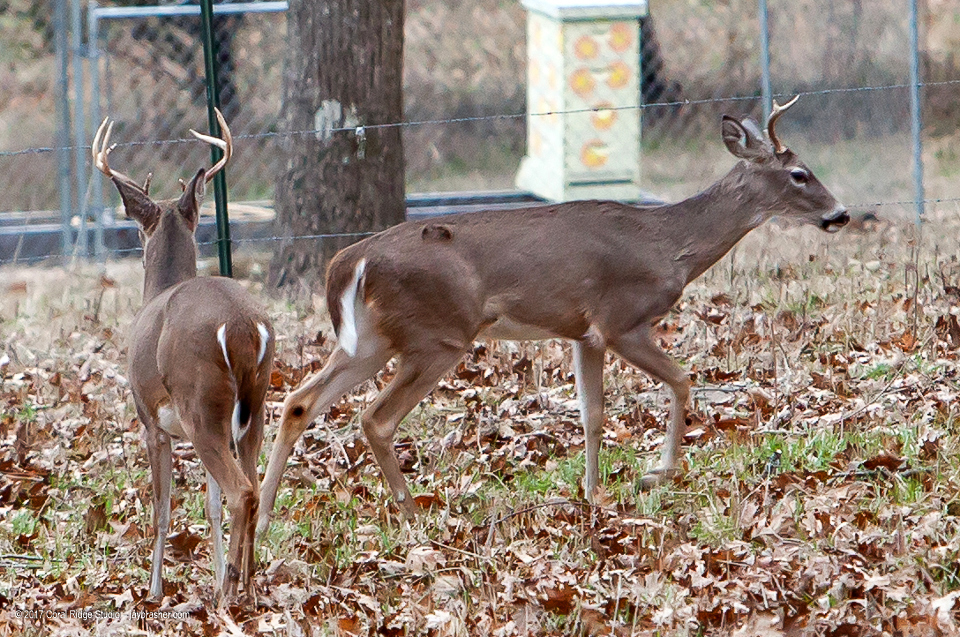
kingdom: Animalia
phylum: Chordata
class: Mammalia
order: Artiodactyla
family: Cervidae
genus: Odocoileus
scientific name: Odocoileus virginianus
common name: White-tailed deer
